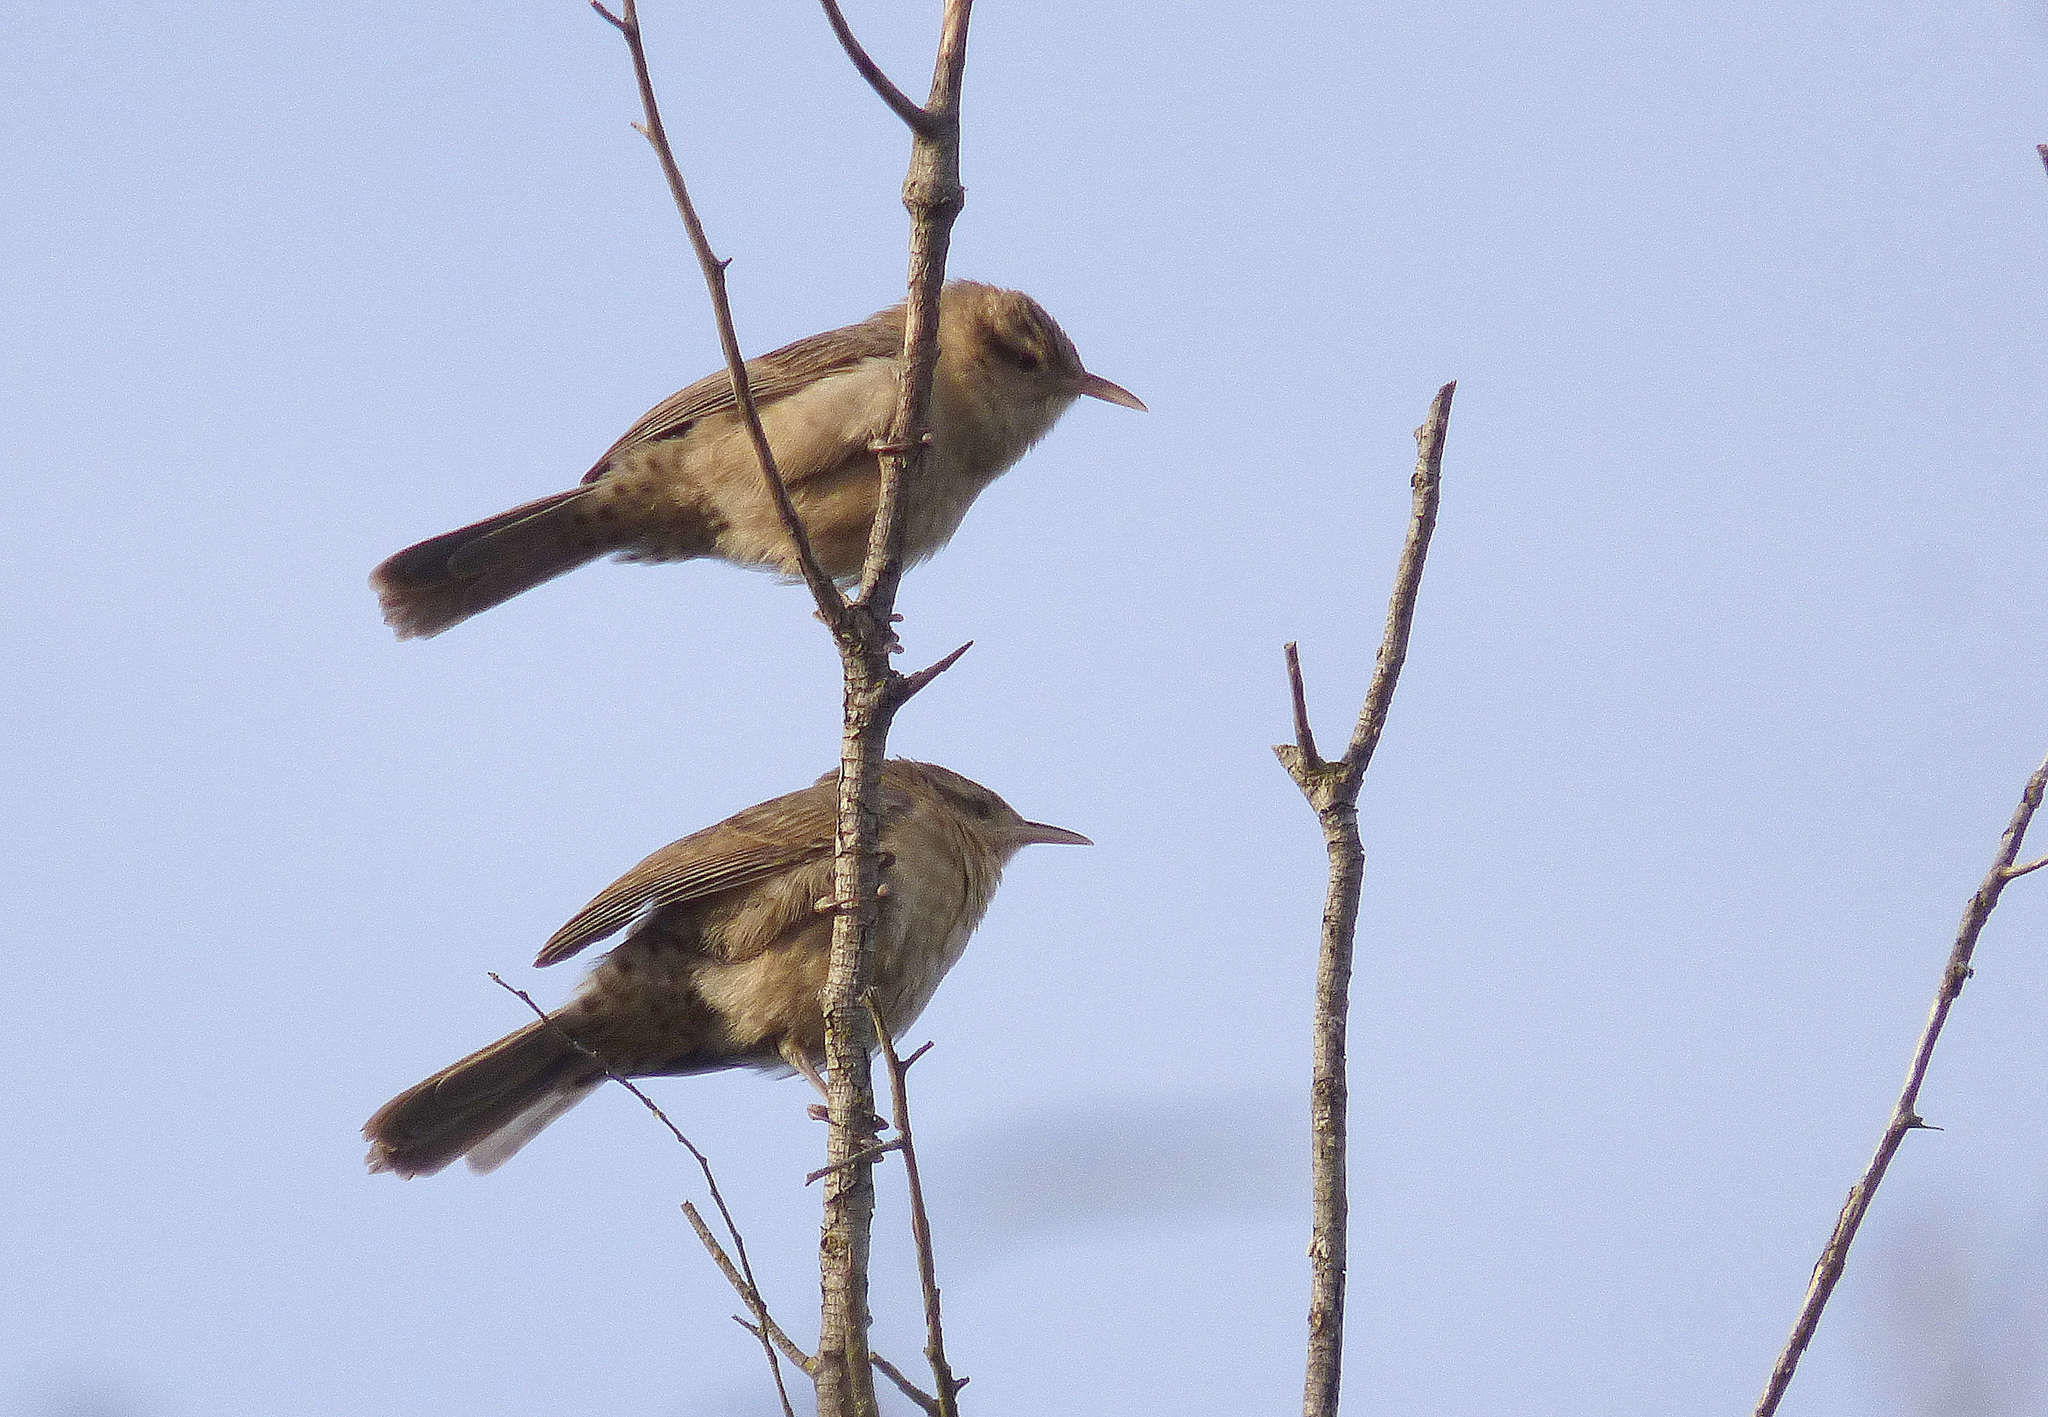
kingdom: Animalia
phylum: Chordata
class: Aves
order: Passeriformes
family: Troglodytidae
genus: Campylorhynchus
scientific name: Campylorhynchus turdinus
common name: Thrush-like wren
